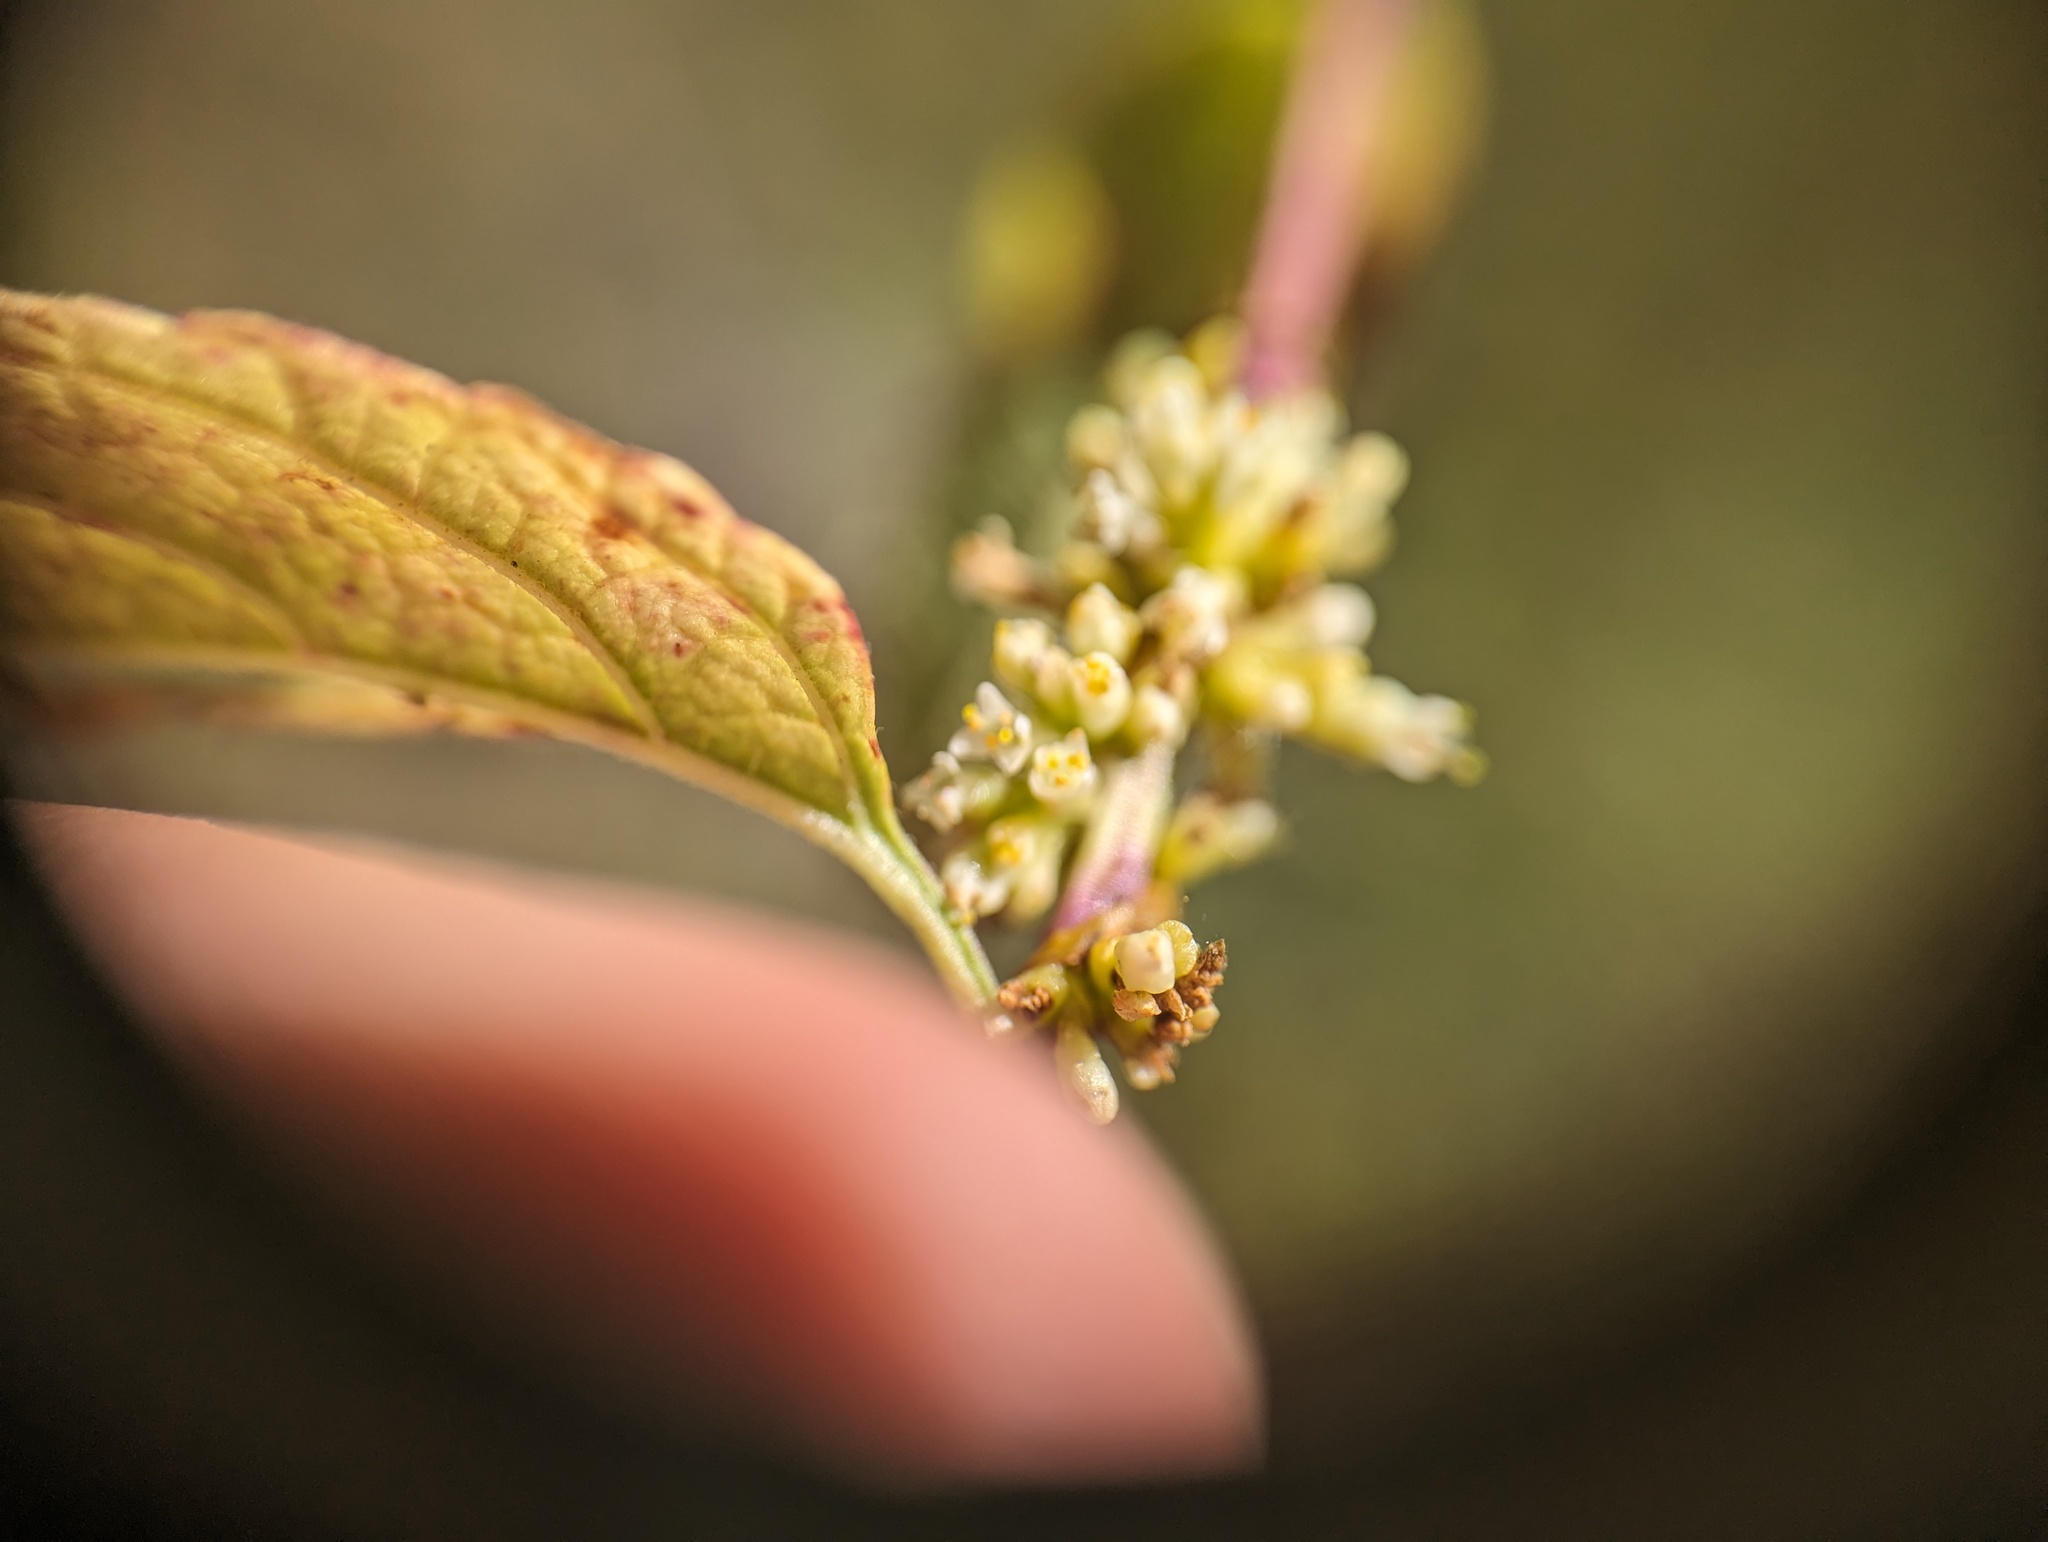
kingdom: Plantae
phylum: Tracheophyta
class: Magnoliopsida
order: Solanales
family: Convolvulaceae
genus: Cuscuta
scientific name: Cuscuta cephalanthi
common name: Button dodder
